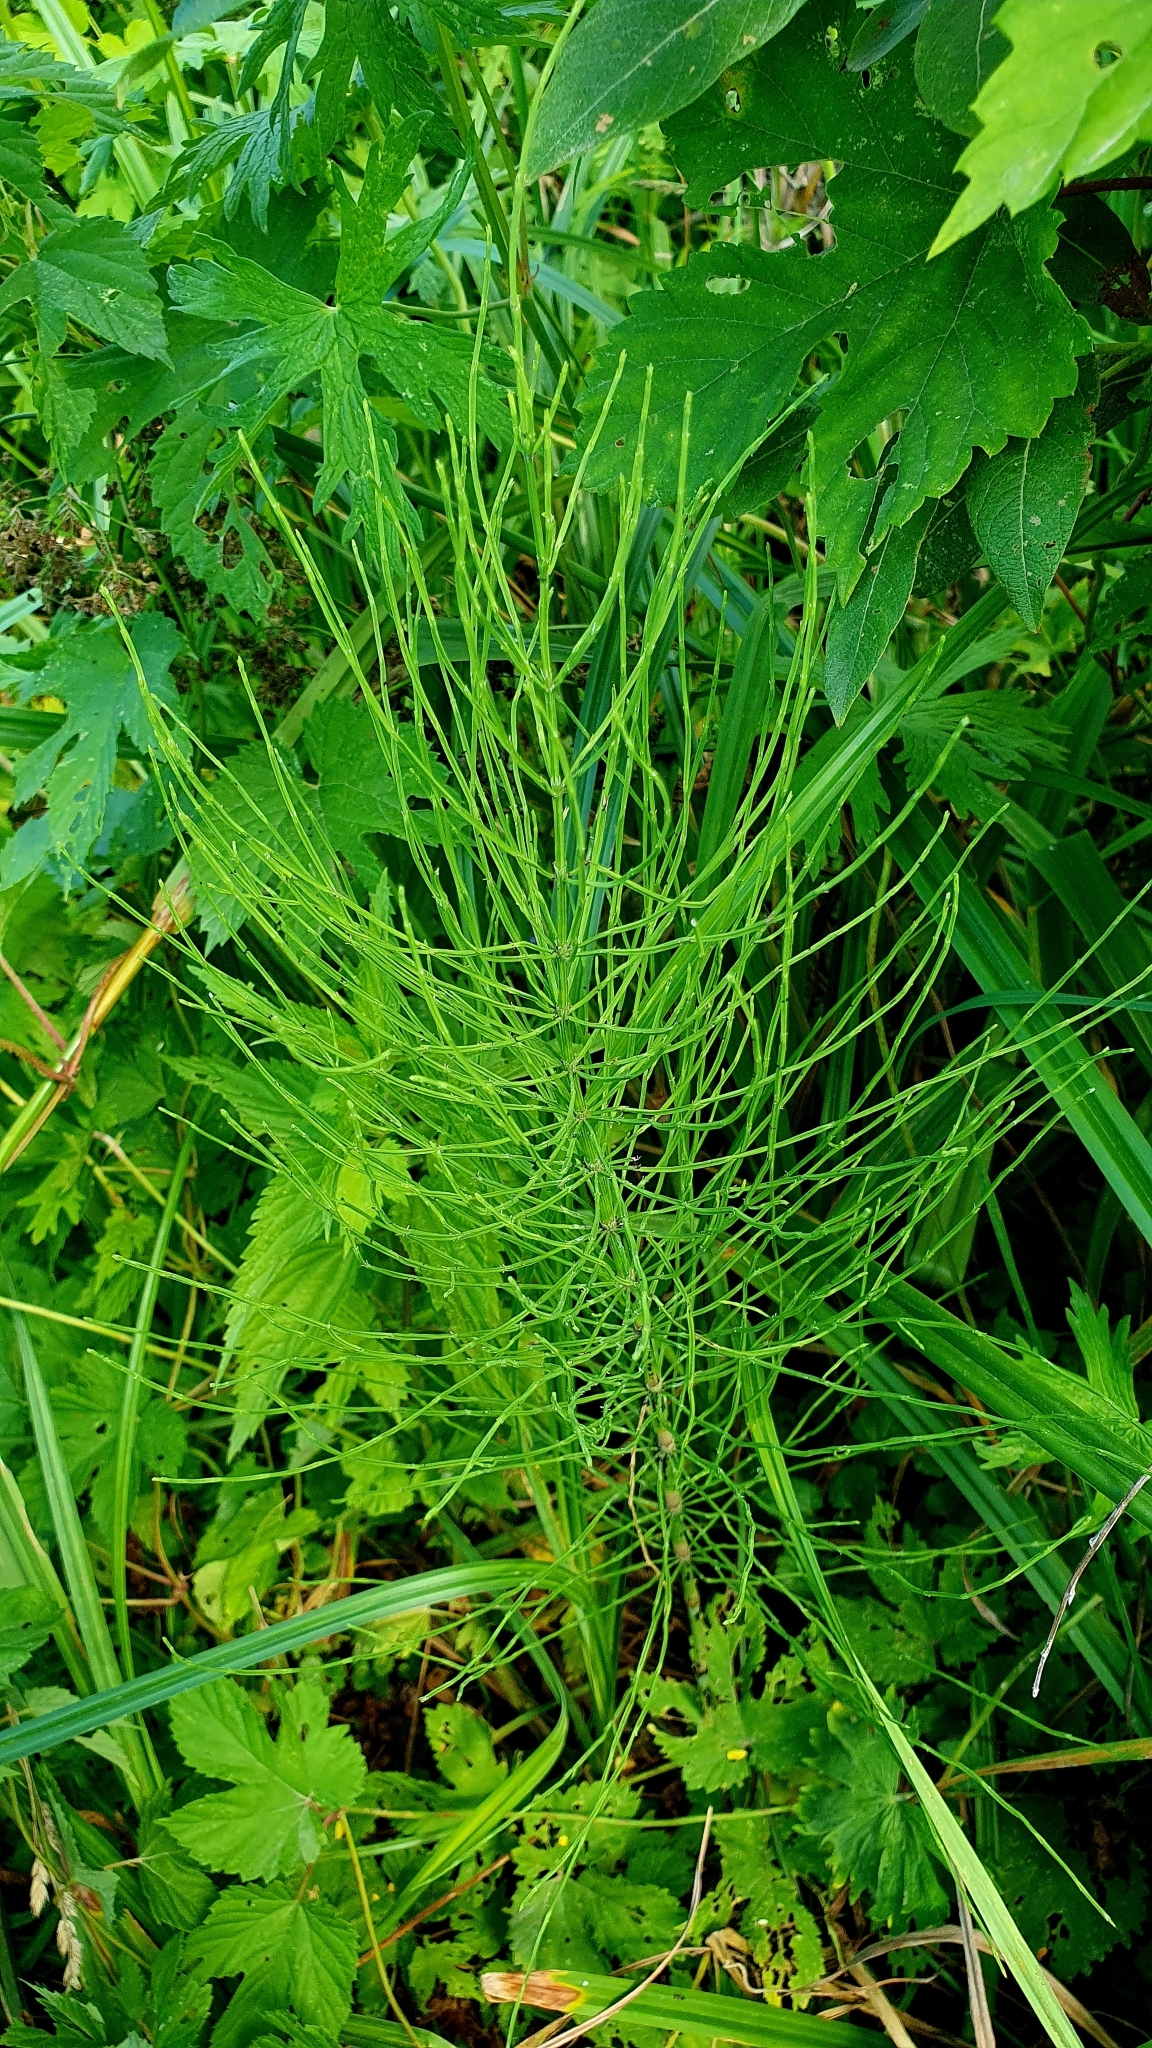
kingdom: Plantae
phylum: Tracheophyta
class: Polypodiopsida
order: Equisetales
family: Equisetaceae
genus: Equisetum
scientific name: Equisetum arvense
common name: Field horsetail
